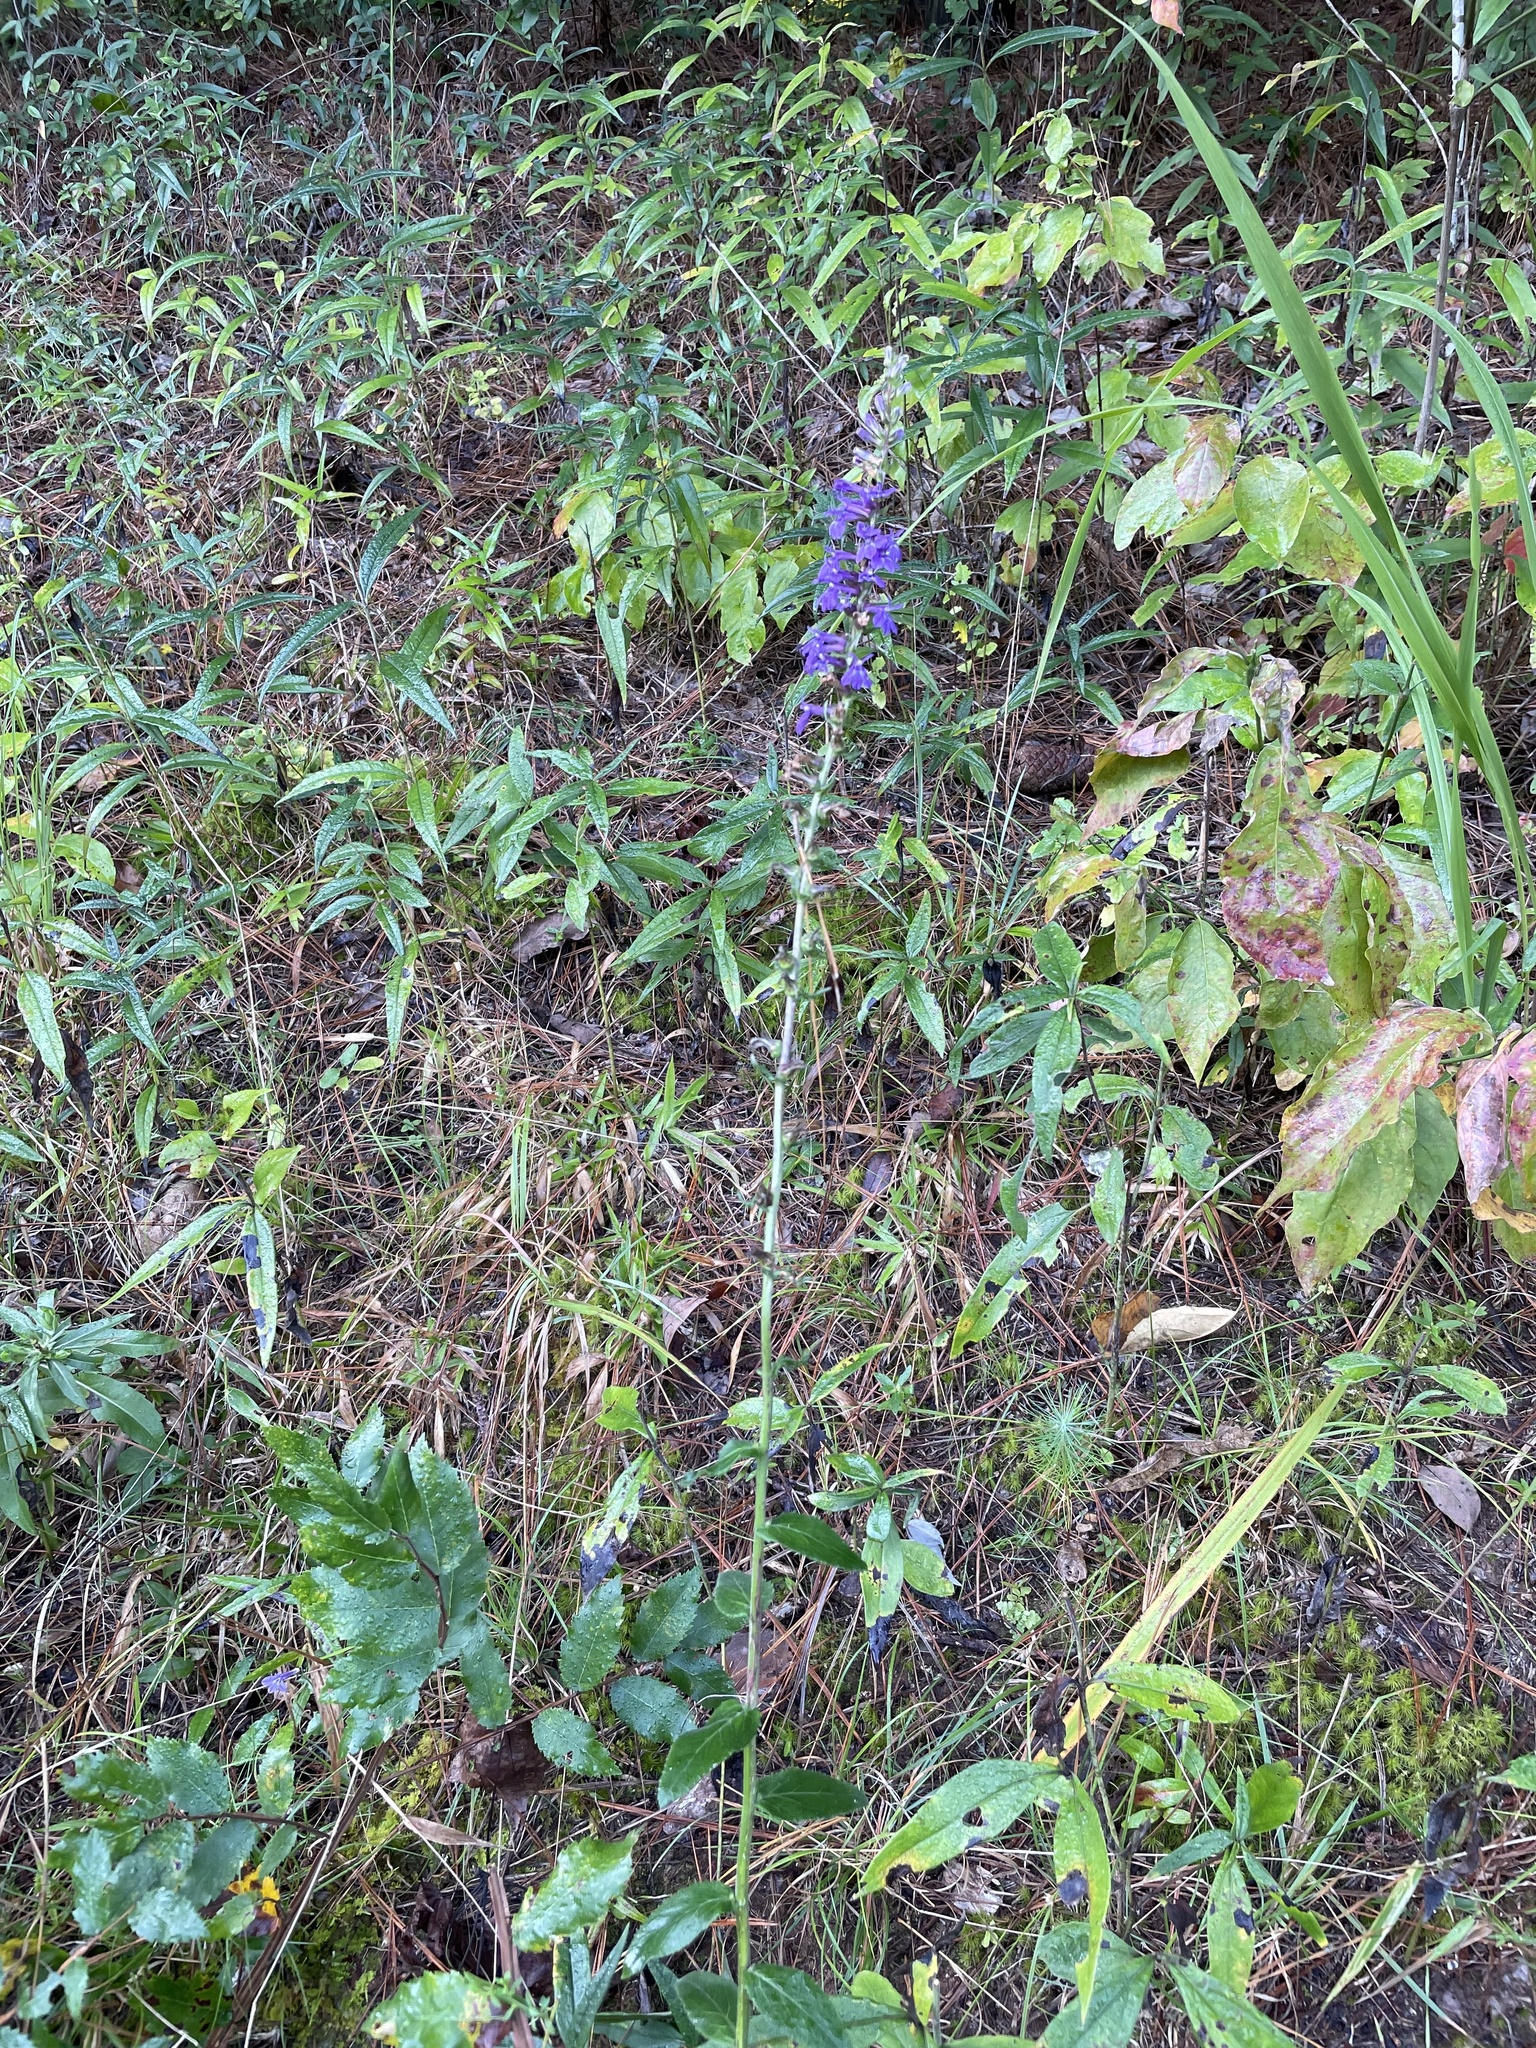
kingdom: Plantae
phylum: Tracheophyta
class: Magnoliopsida
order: Asterales
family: Campanulaceae
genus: Lobelia
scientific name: Lobelia puberula
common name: Purple dewdrop
